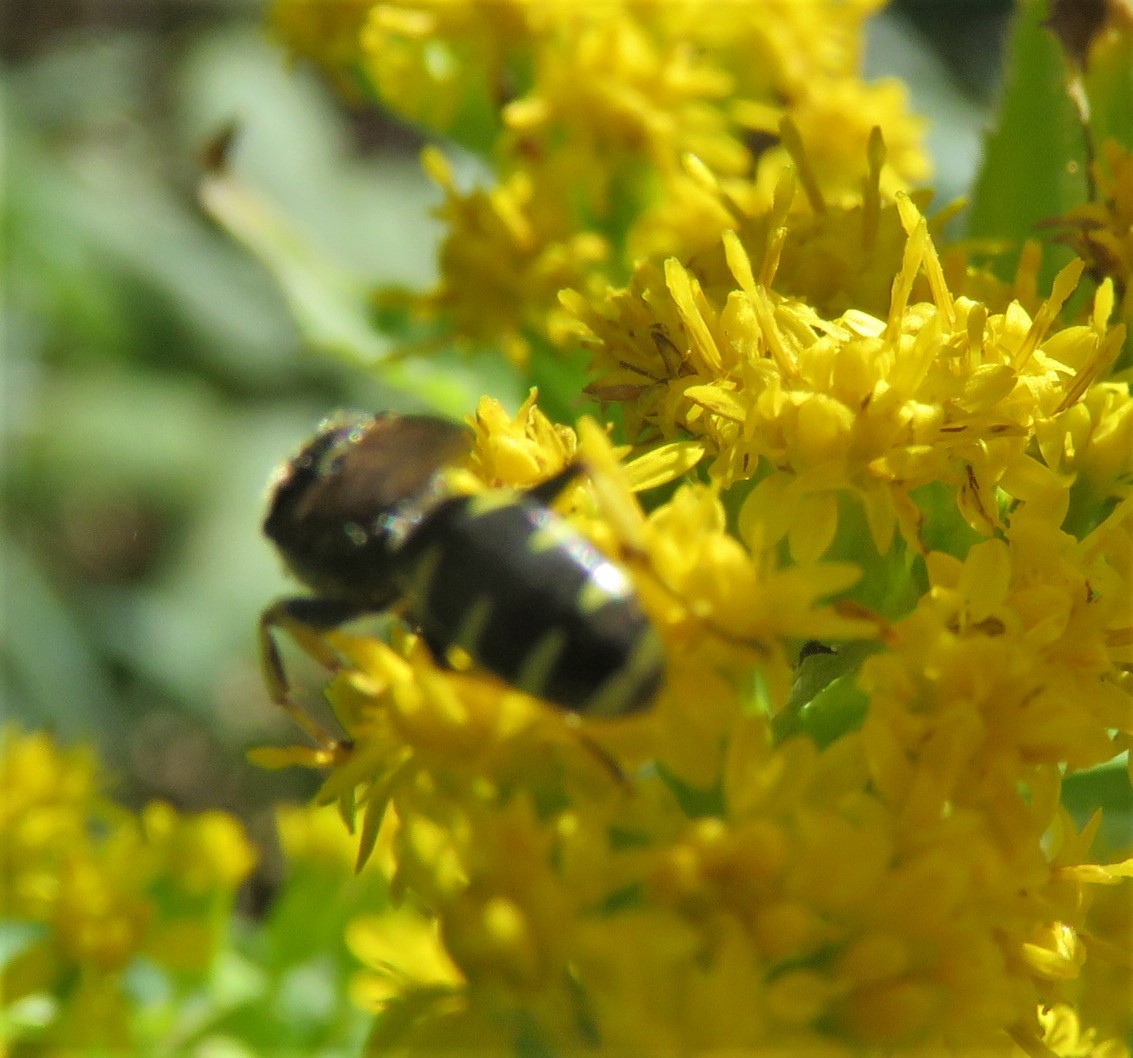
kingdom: Animalia
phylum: Arthropoda
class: Insecta
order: Hymenoptera
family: Crabronidae
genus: Ectemnius
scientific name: Ectemnius
